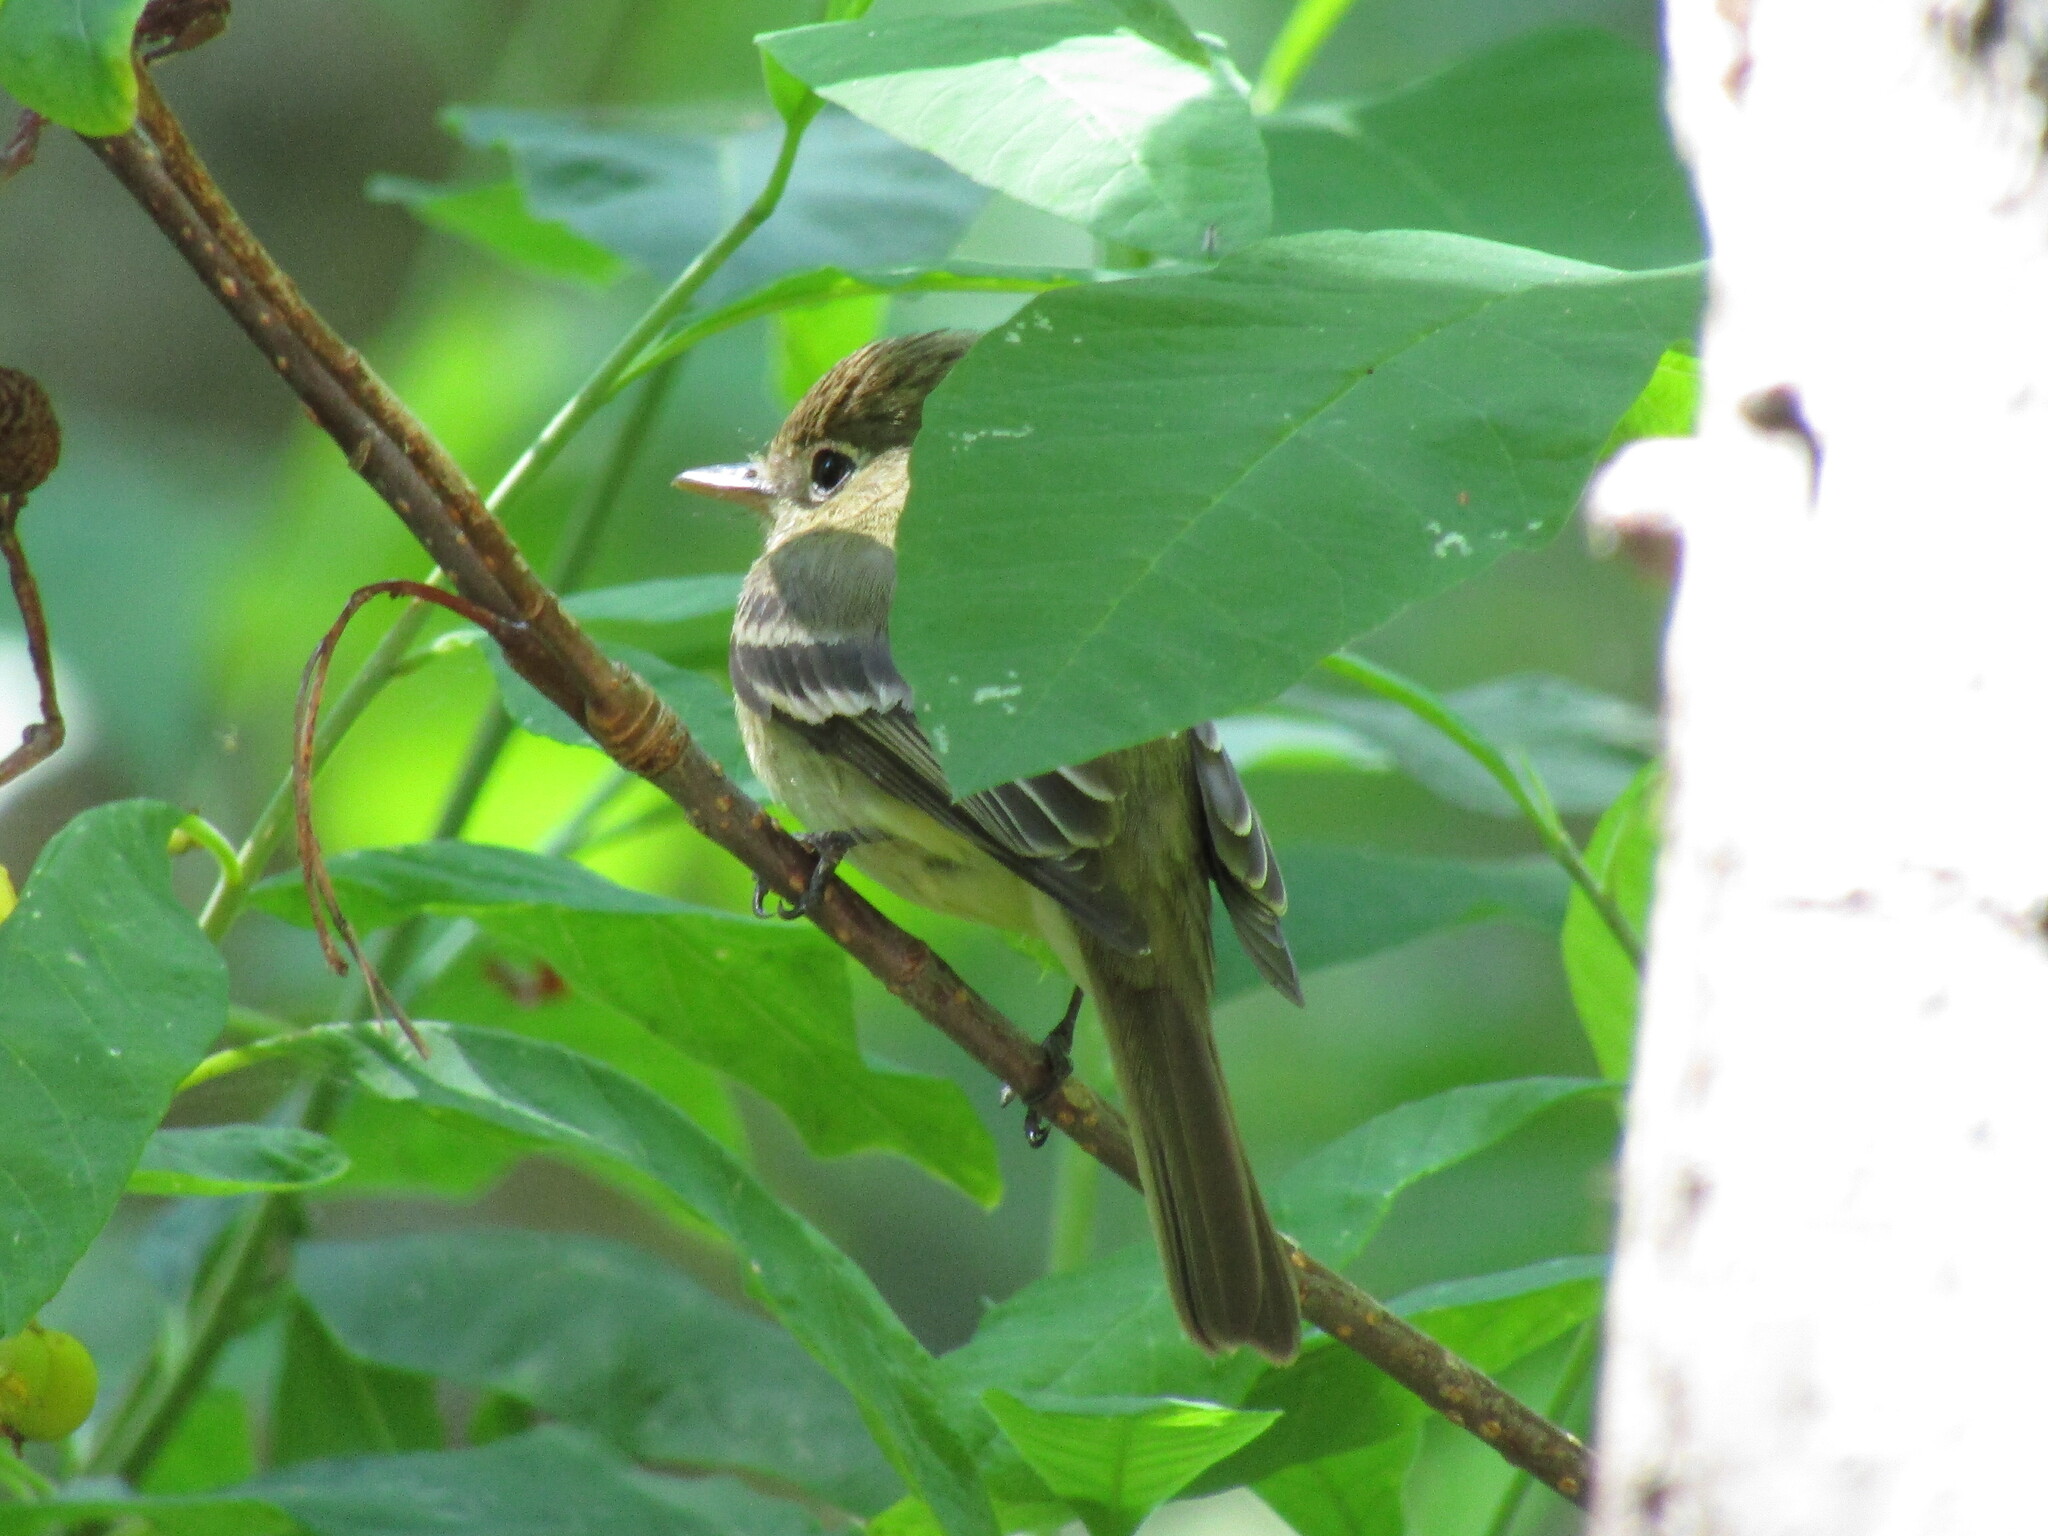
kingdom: Animalia
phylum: Chordata
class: Aves
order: Passeriformes
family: Tyrannidae
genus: Empidonax
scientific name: Empidonax difficilis
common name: Pacific-slope flycatcher
